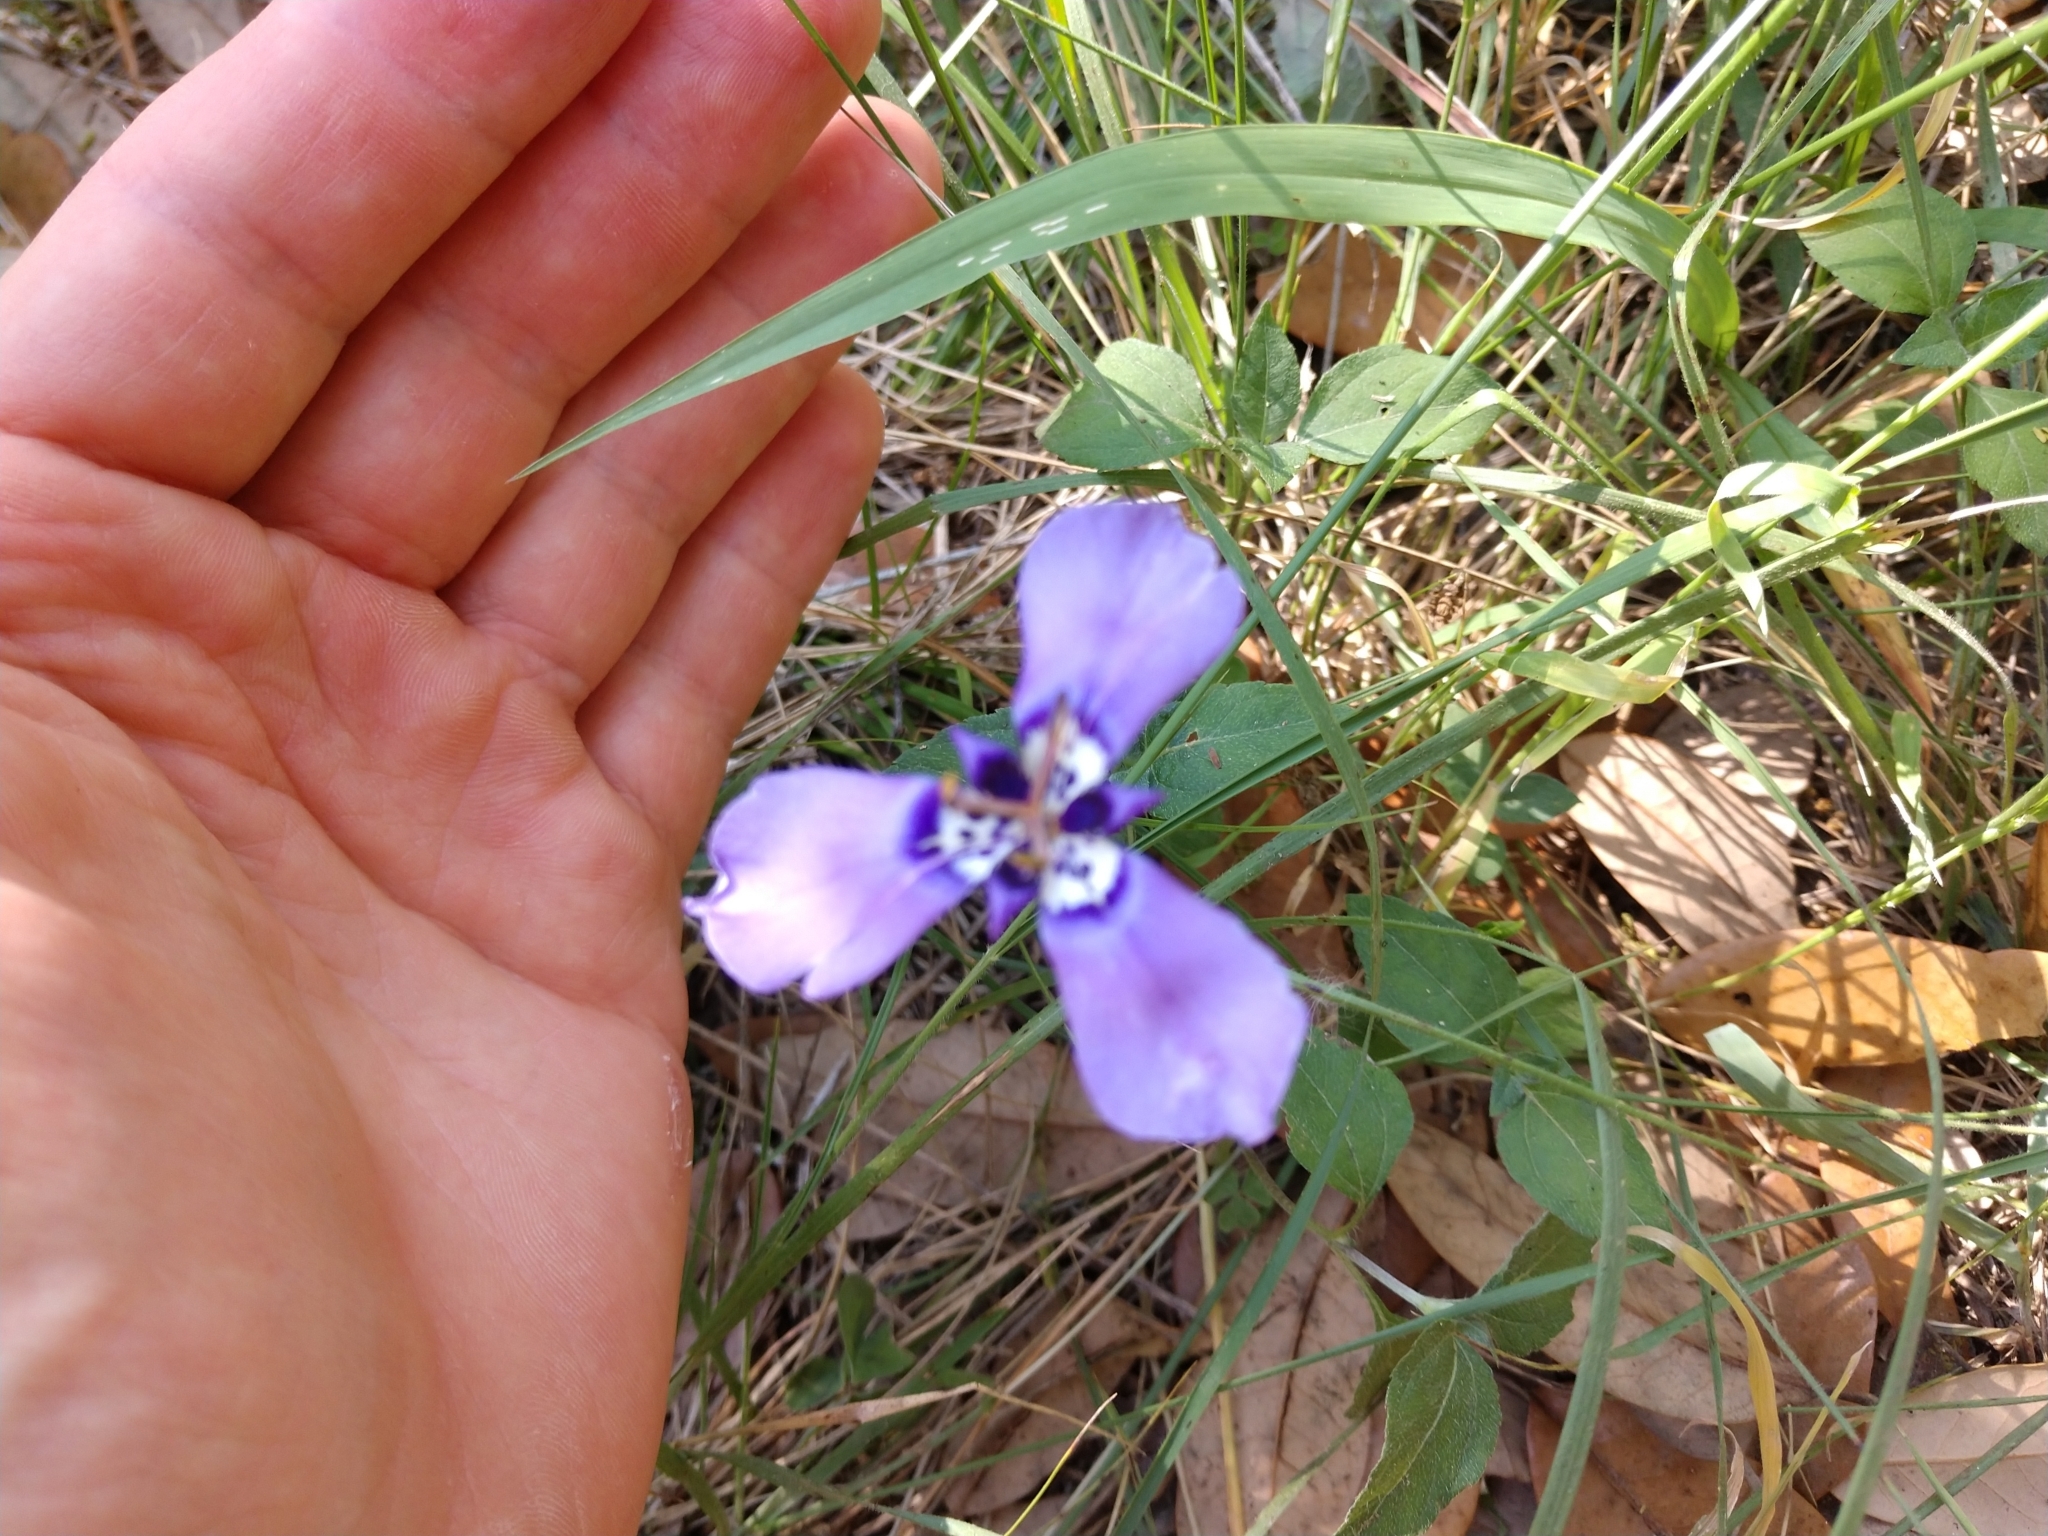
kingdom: Plantae
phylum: Tracheophyta
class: Liliopsida
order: Asparagales
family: Iridaceae
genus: Herbertia
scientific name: Herbertia lahue
